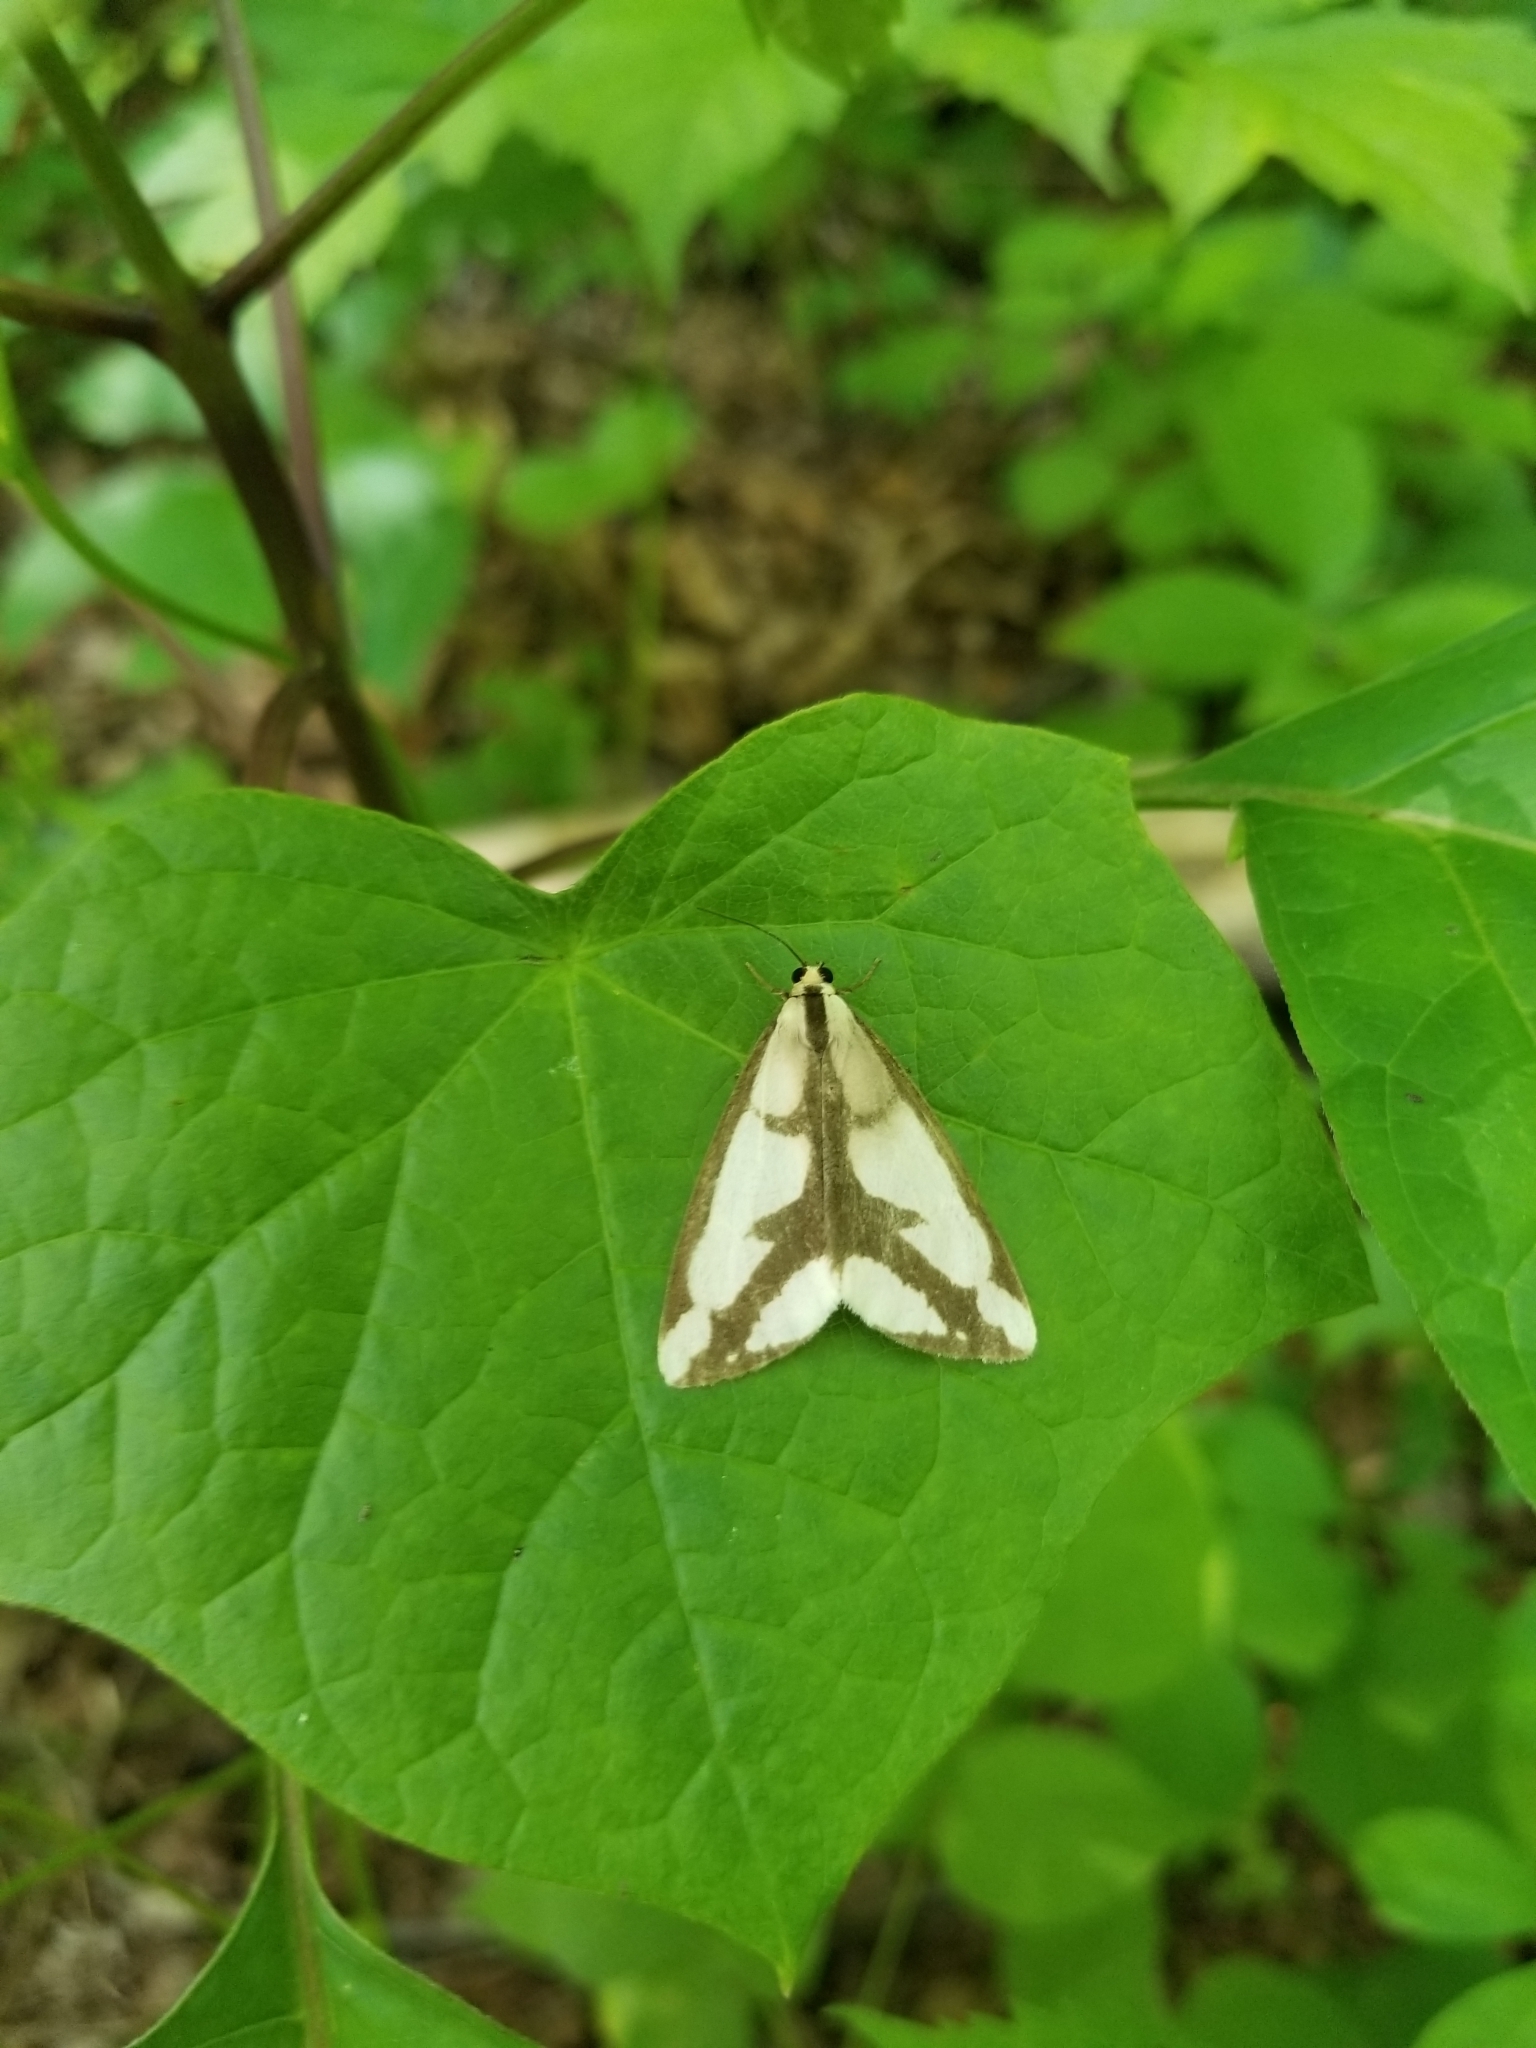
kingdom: Animalia
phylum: Arthropoda
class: Insecta
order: Lepidoptera
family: Erebidae
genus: Haploa
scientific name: Haploa lecontei
